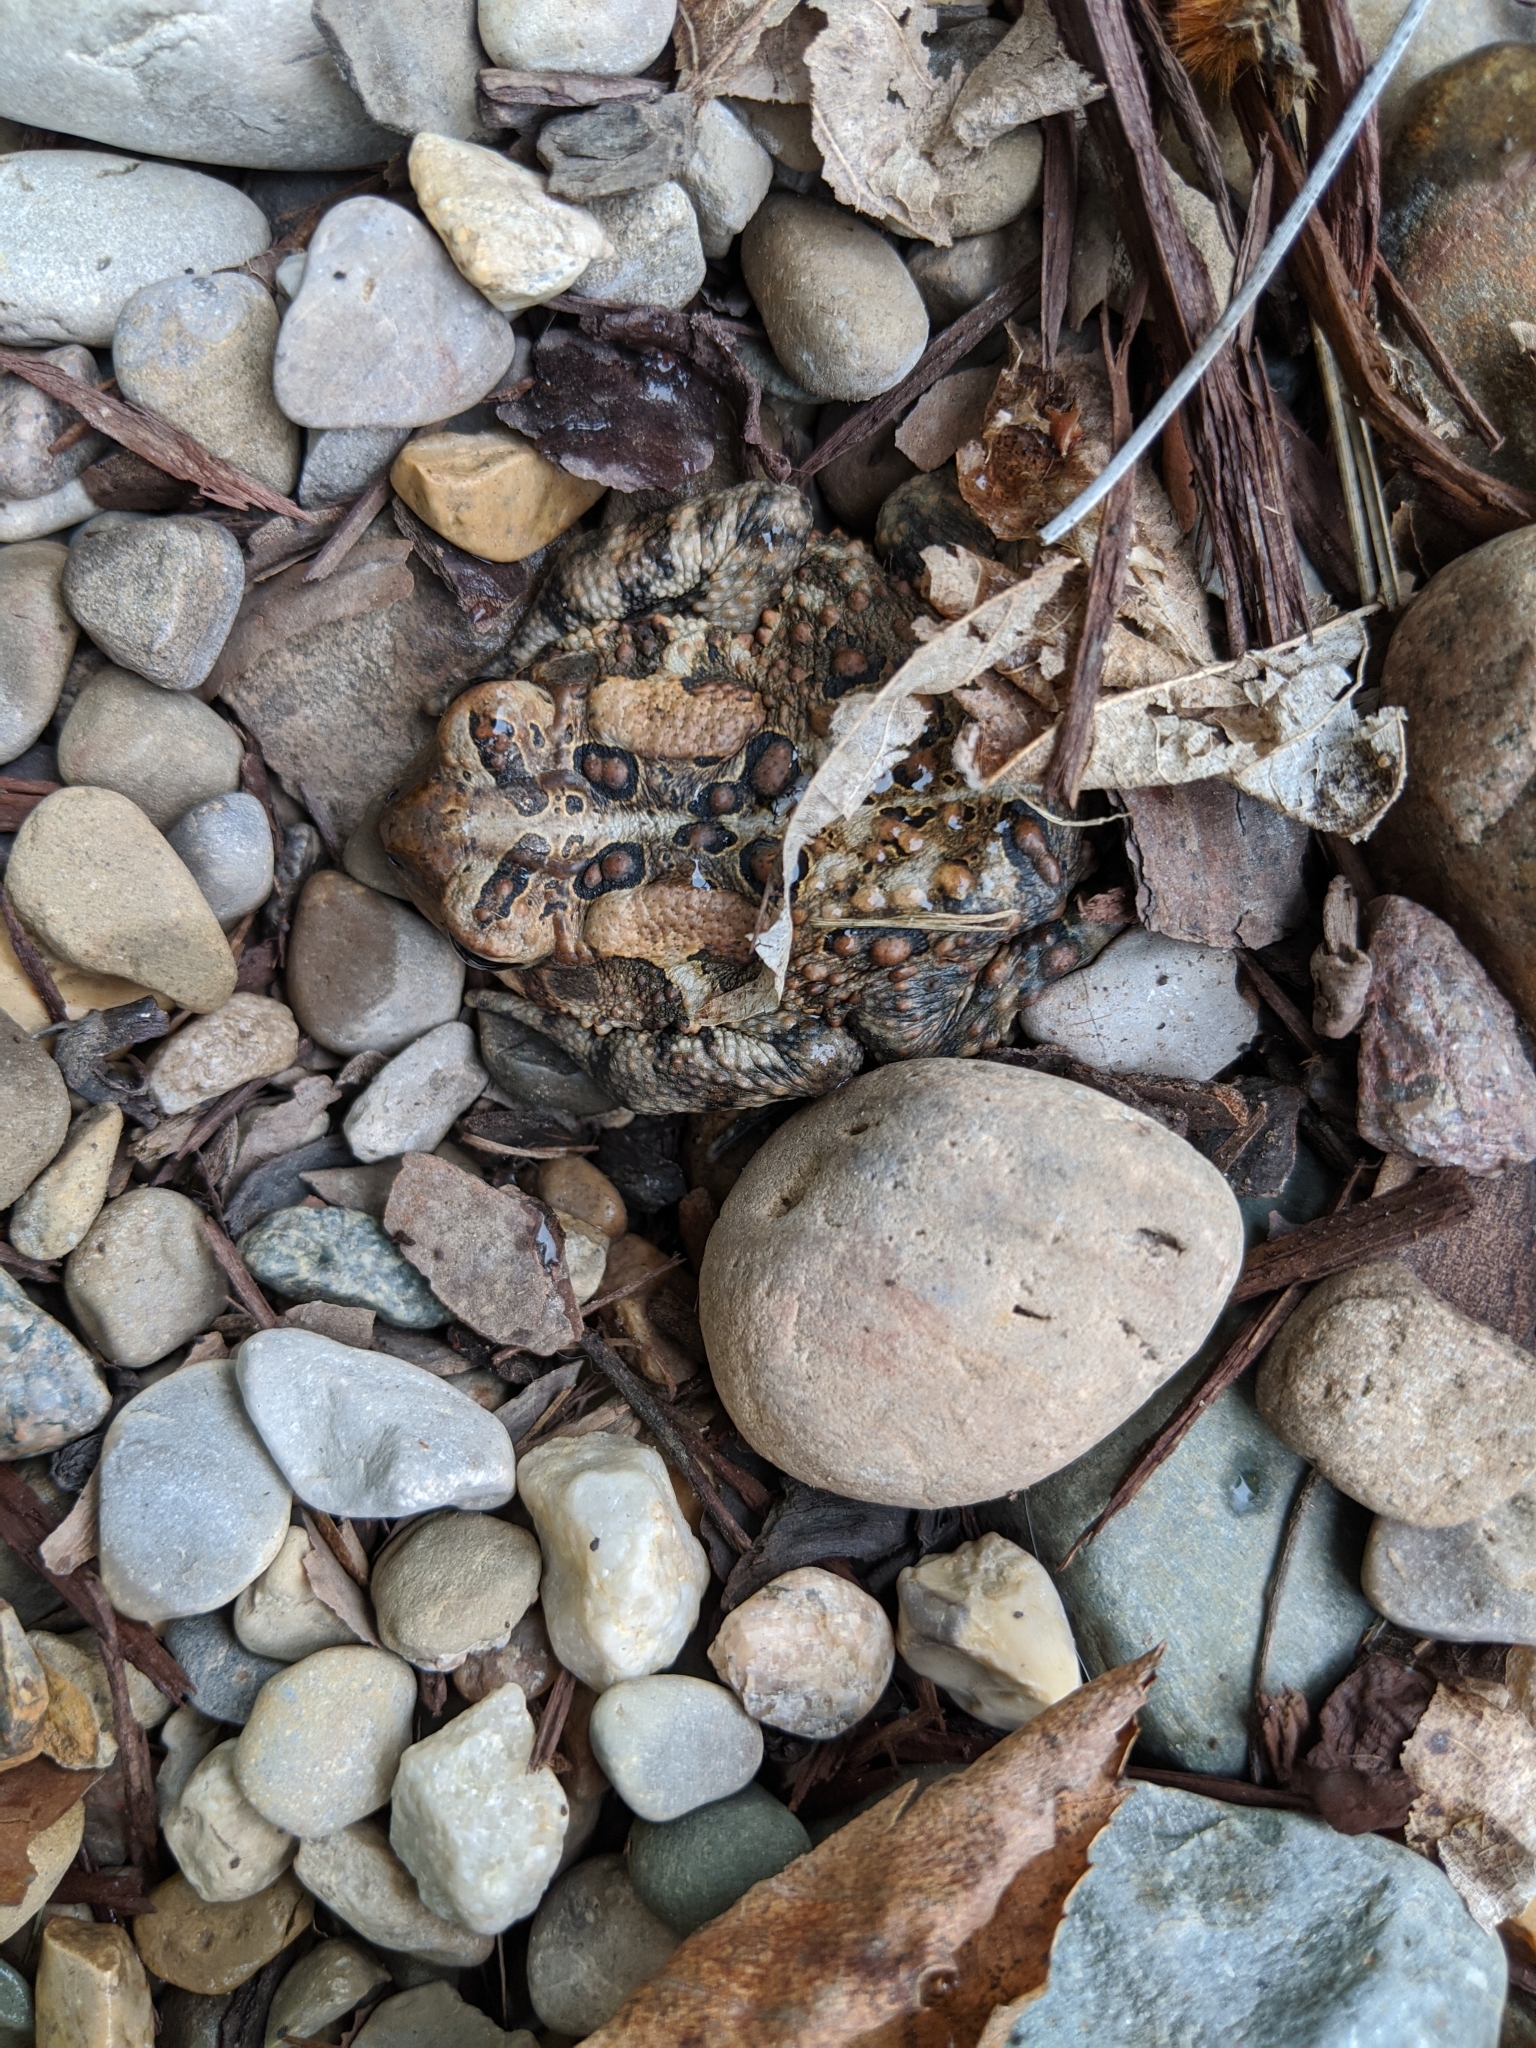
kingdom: Animalia
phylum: Chordata
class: Amphibia
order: Anura
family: Bufonidae
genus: Anaxyrus
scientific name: Anaxyrus americanus
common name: American toad
